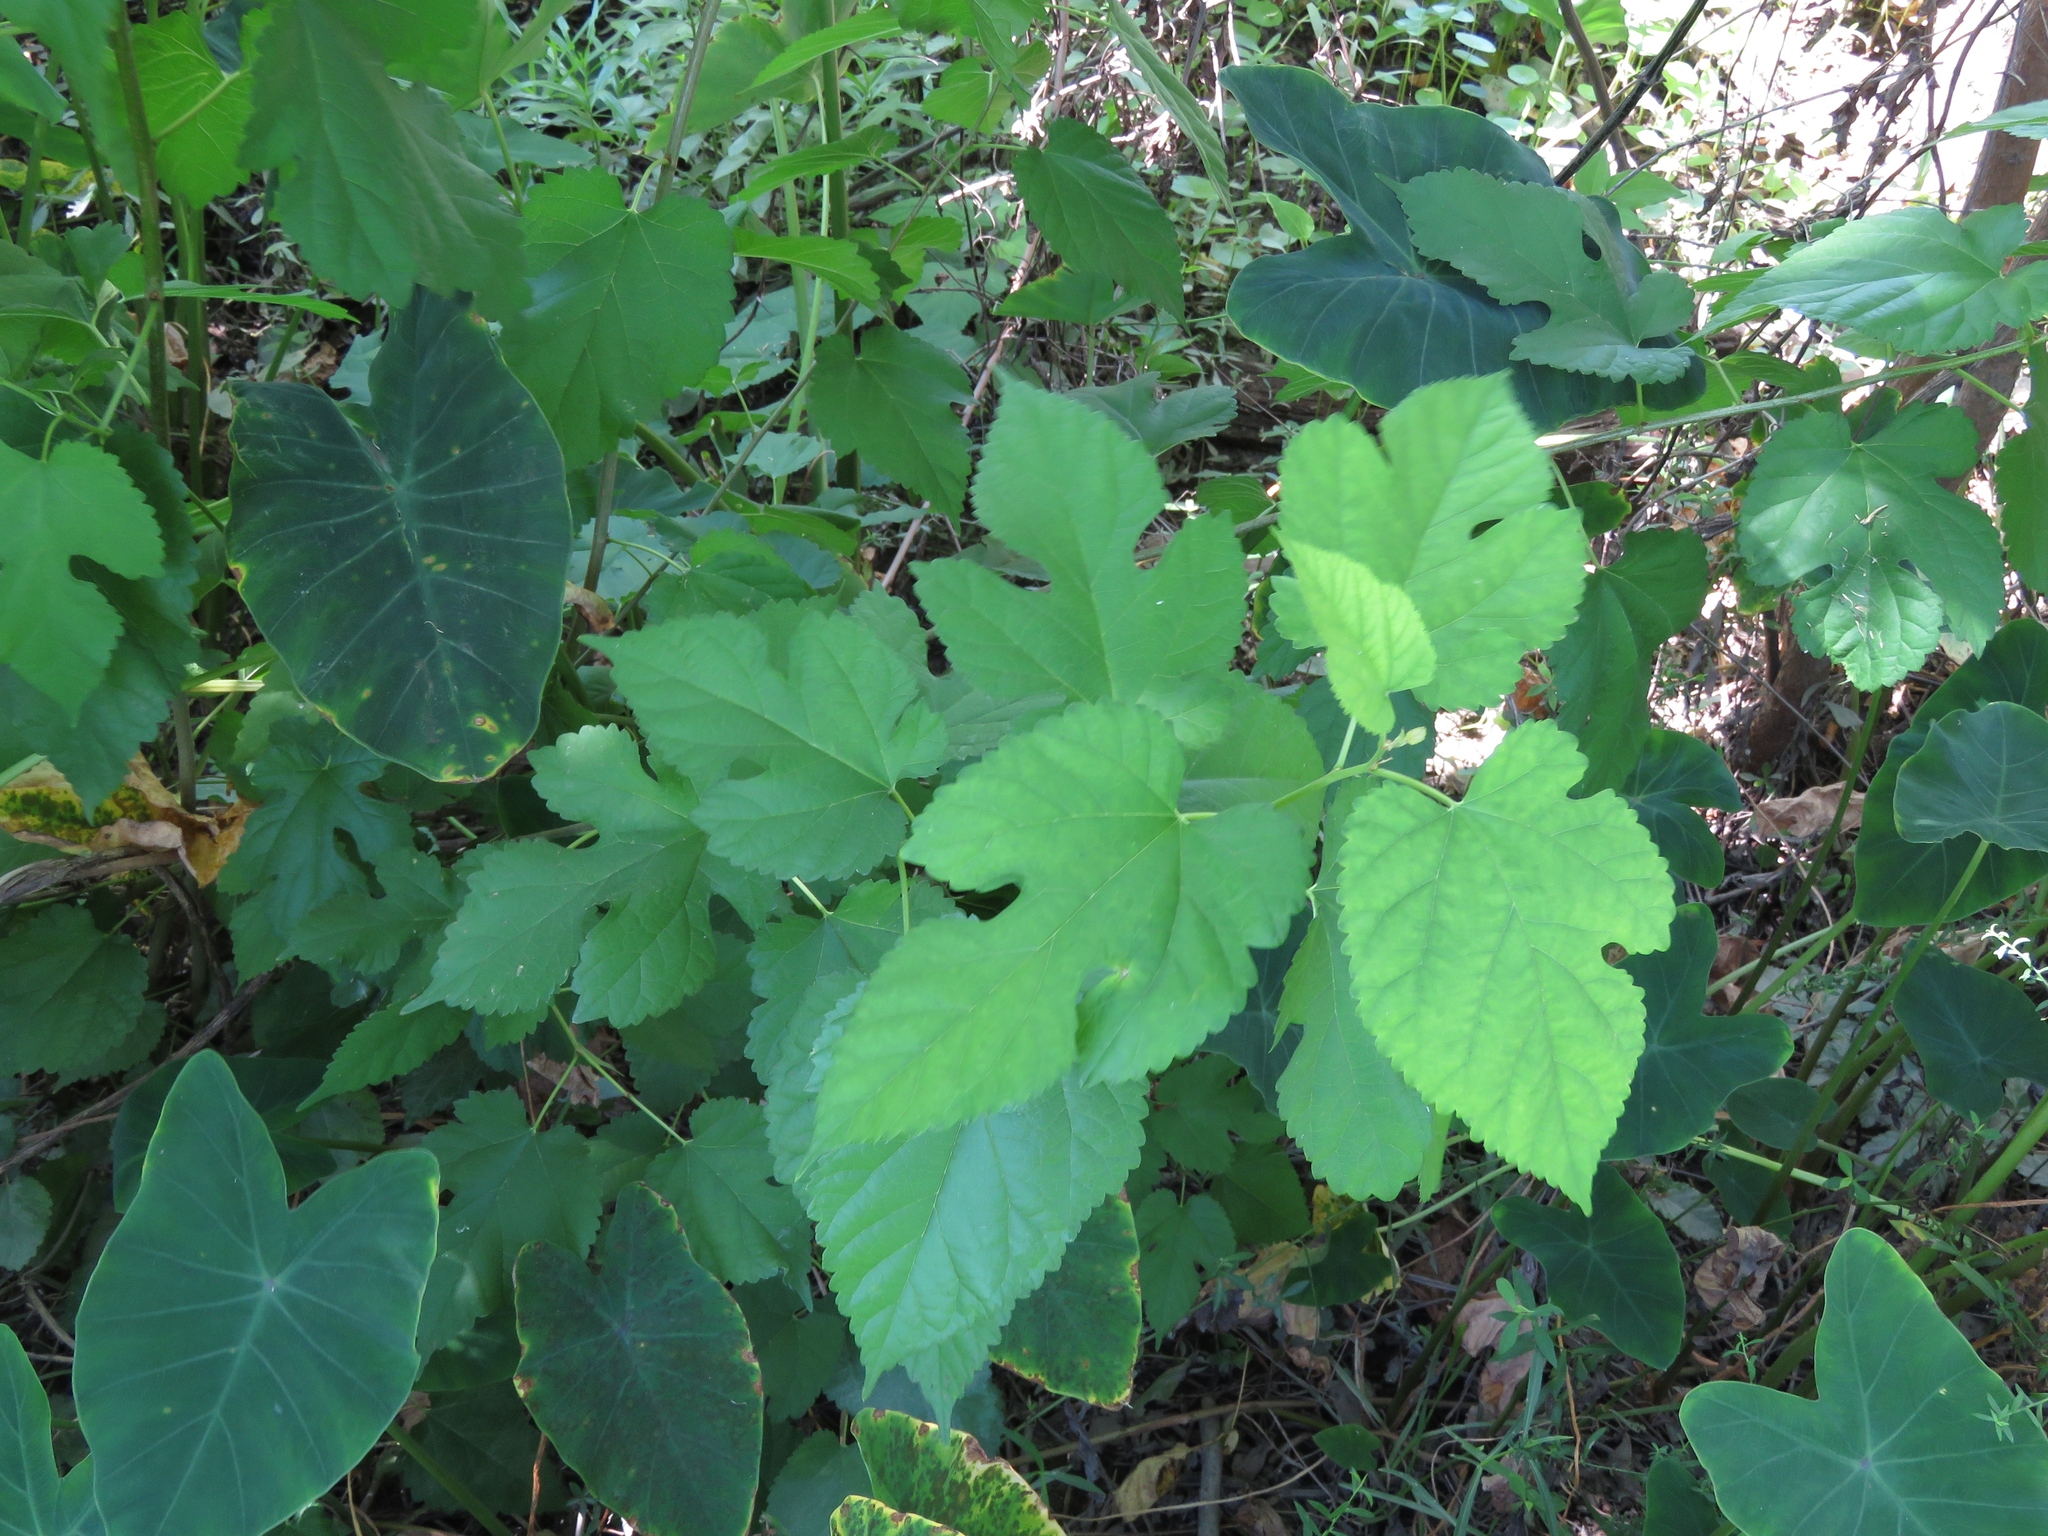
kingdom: Plantae
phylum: Tracheophyta
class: Magnoliopsida
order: Rosales
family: Moraceae
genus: Morus
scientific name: Morus alba
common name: White mulberry
